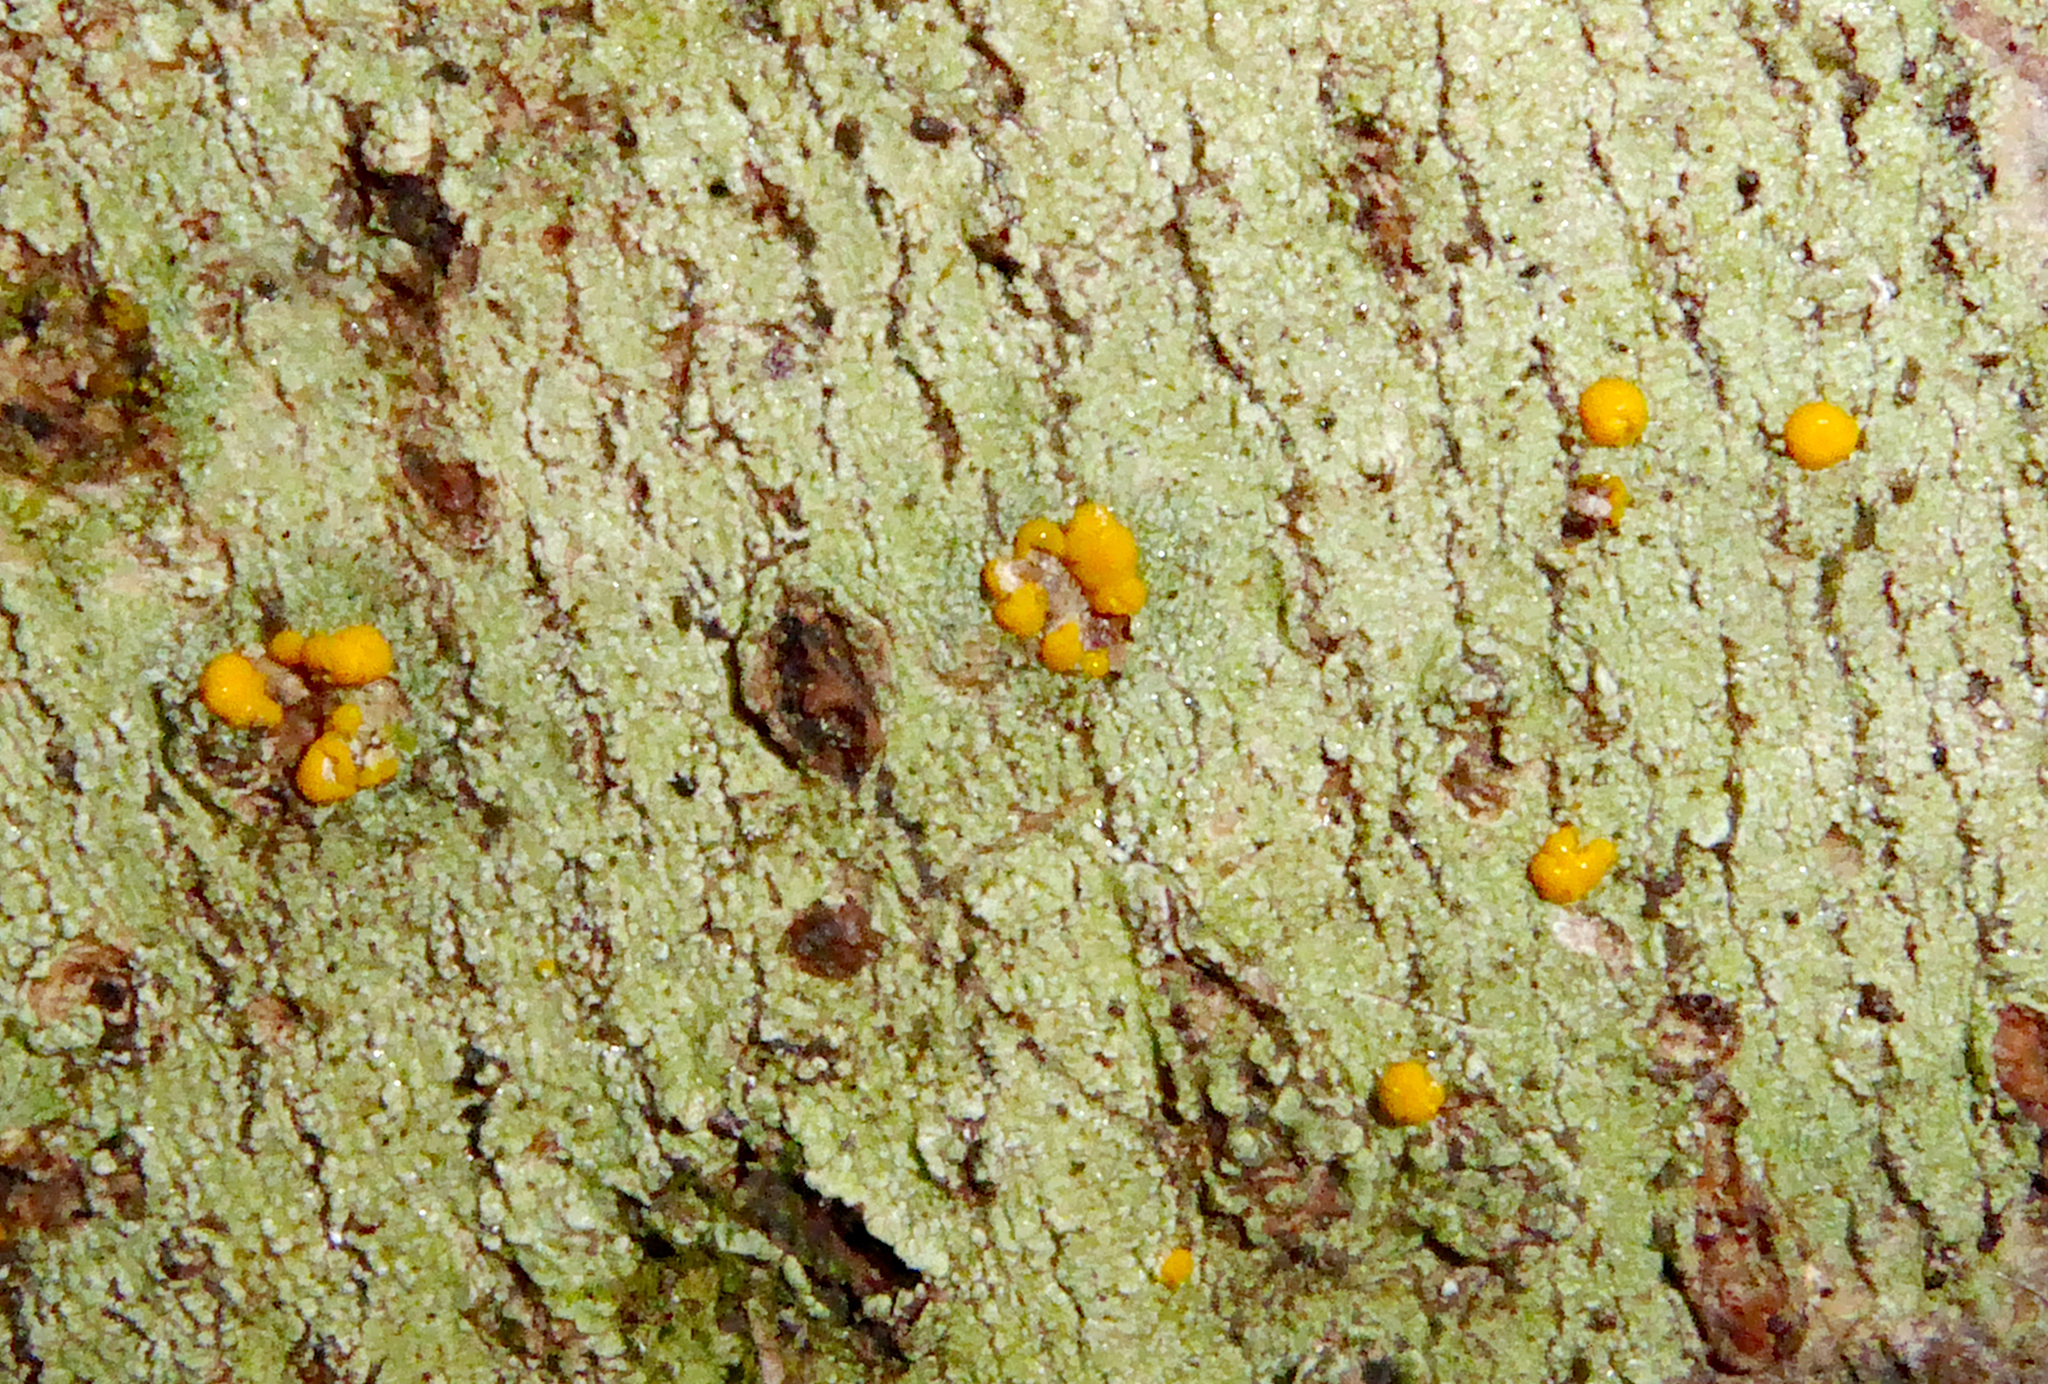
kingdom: Fungi
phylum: Ascomycota
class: Lecanoromycetes
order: Lecanorales
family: Ramalinaceae
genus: Stirtoniella
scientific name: Stirtoniella kelica
